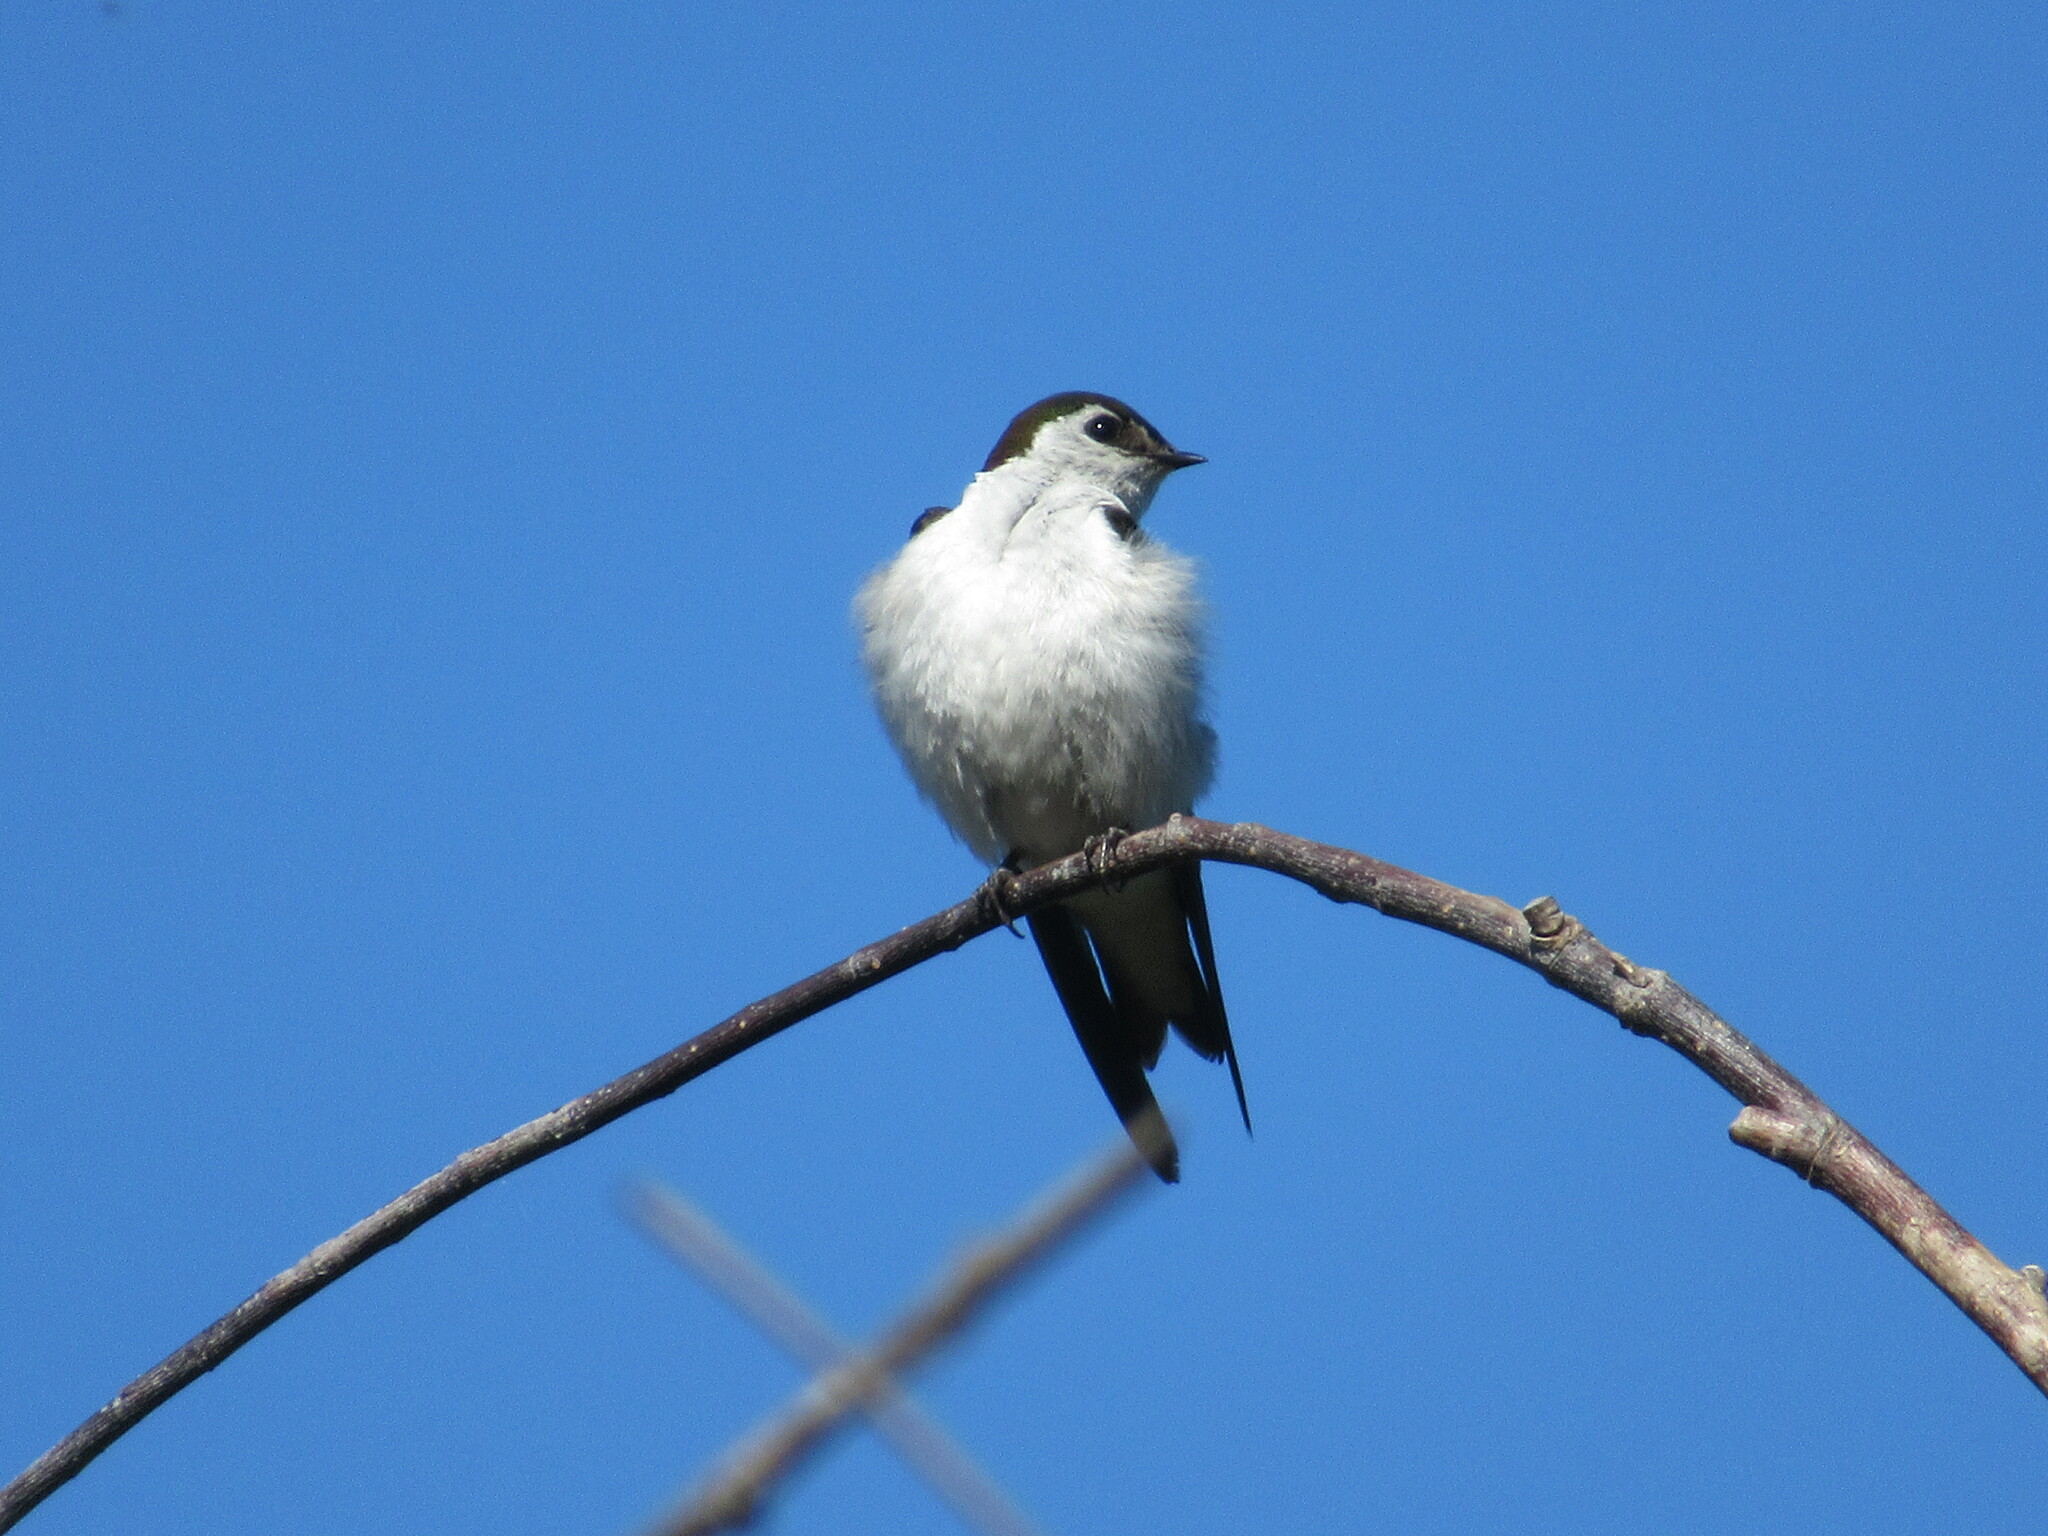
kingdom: Animalia
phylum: Chordata
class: Aves
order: Passeriformes
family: Hirundinidae
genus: Tachycineta
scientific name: Tachycineta thalassina
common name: Violet-green swallow
